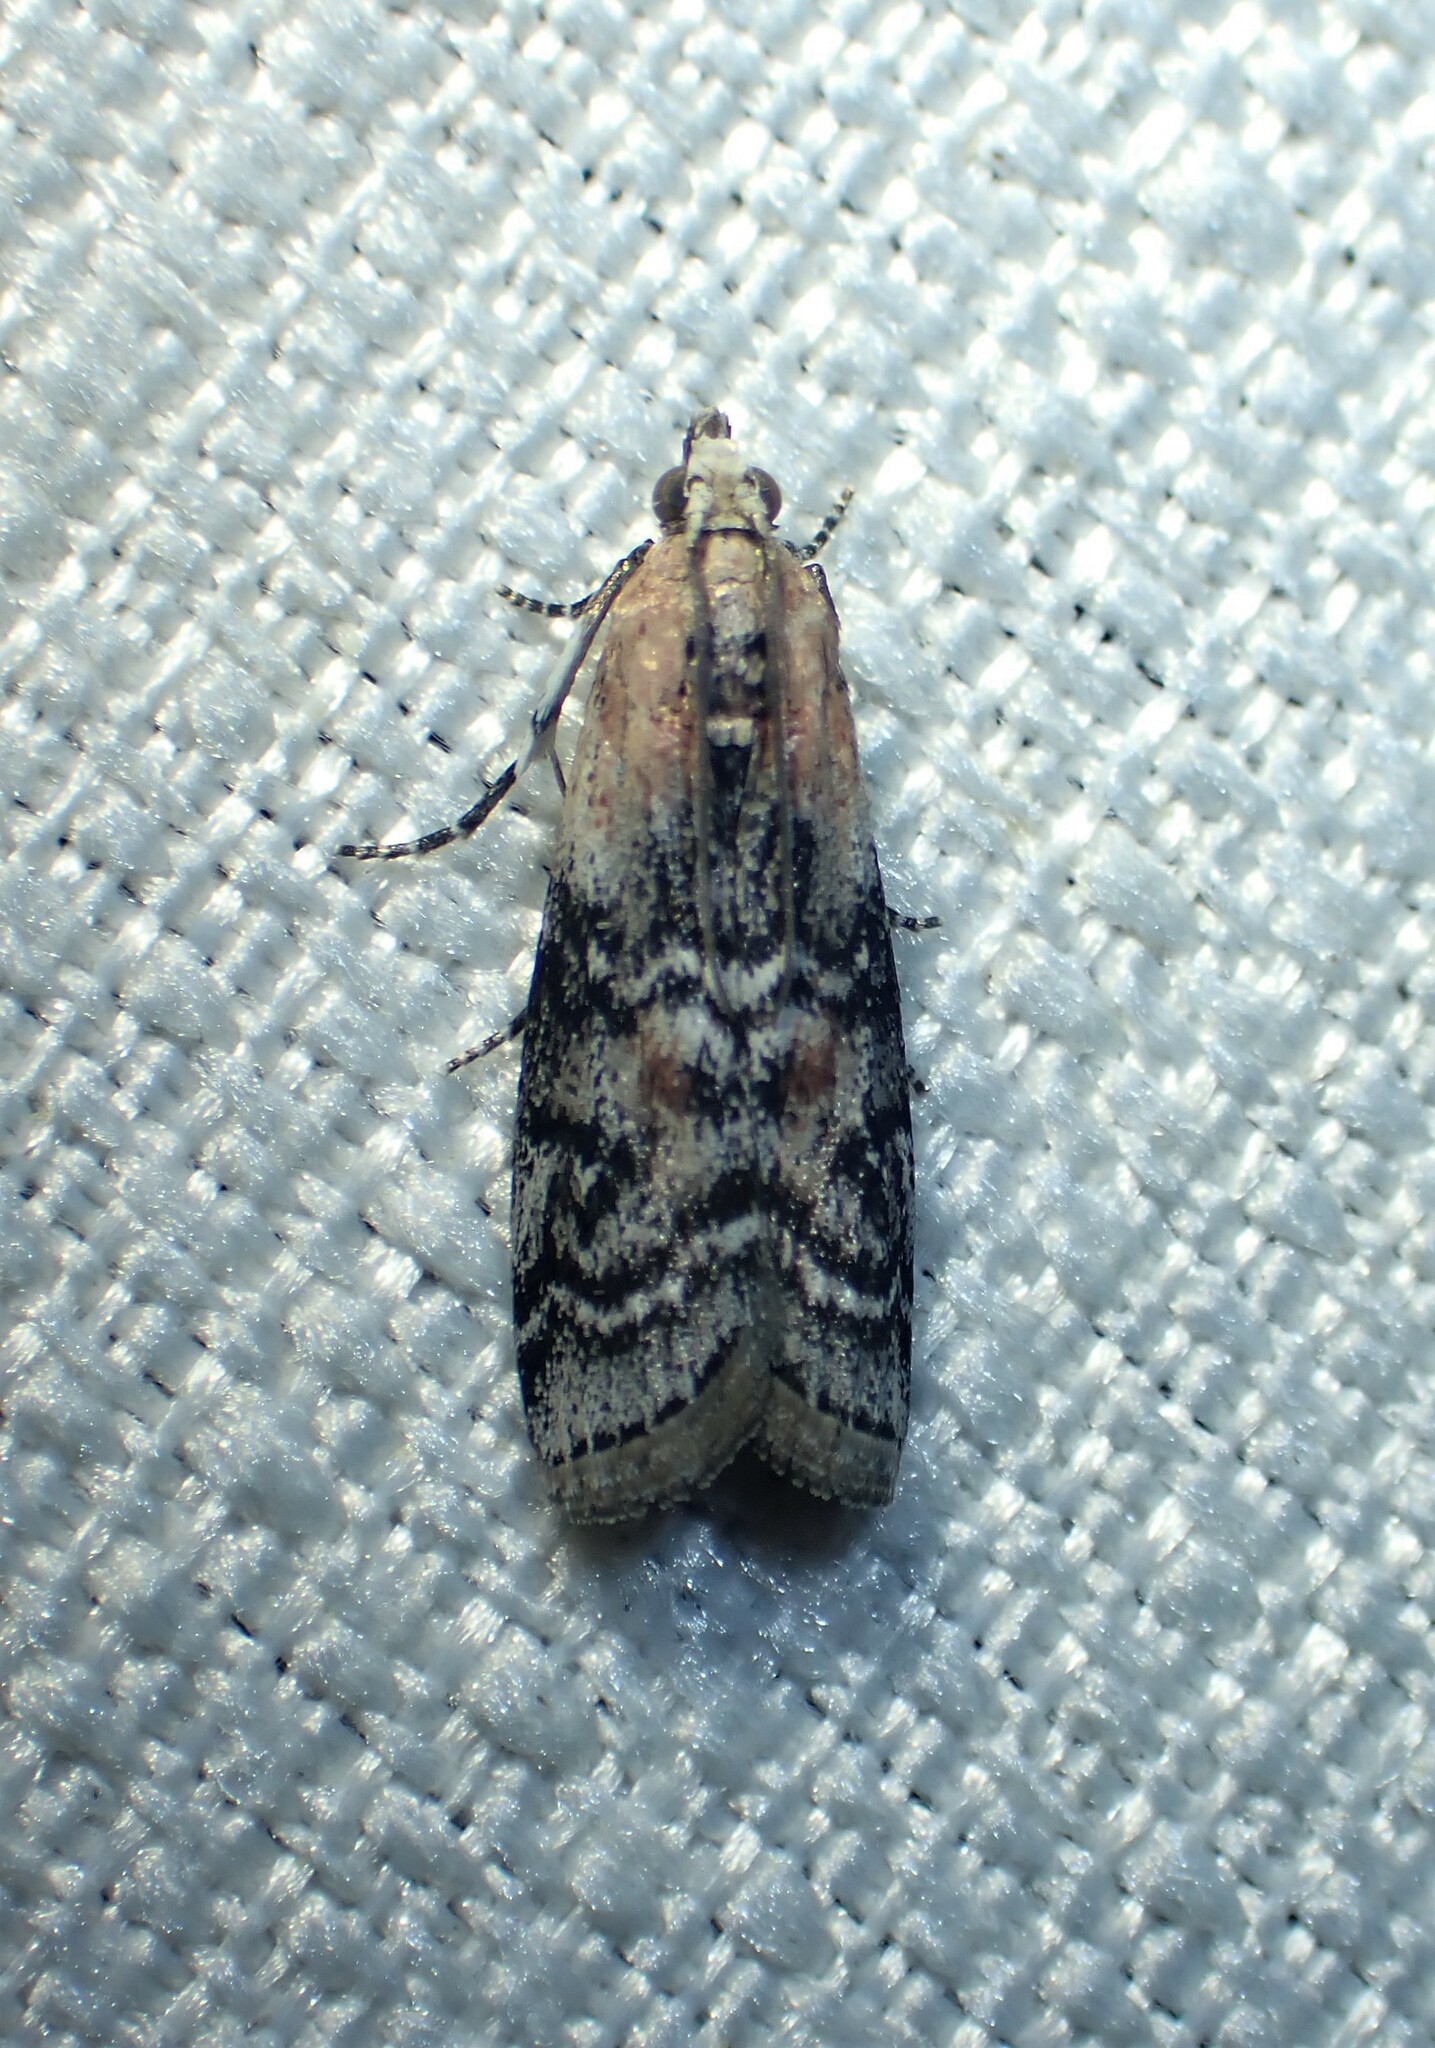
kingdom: Animalia
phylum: Arthropoda
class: Insecta
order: Lepidoptera
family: Pyralidae
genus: Glyptocera
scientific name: Glyptocera consobrinella
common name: Viburnum glyptocera moth
